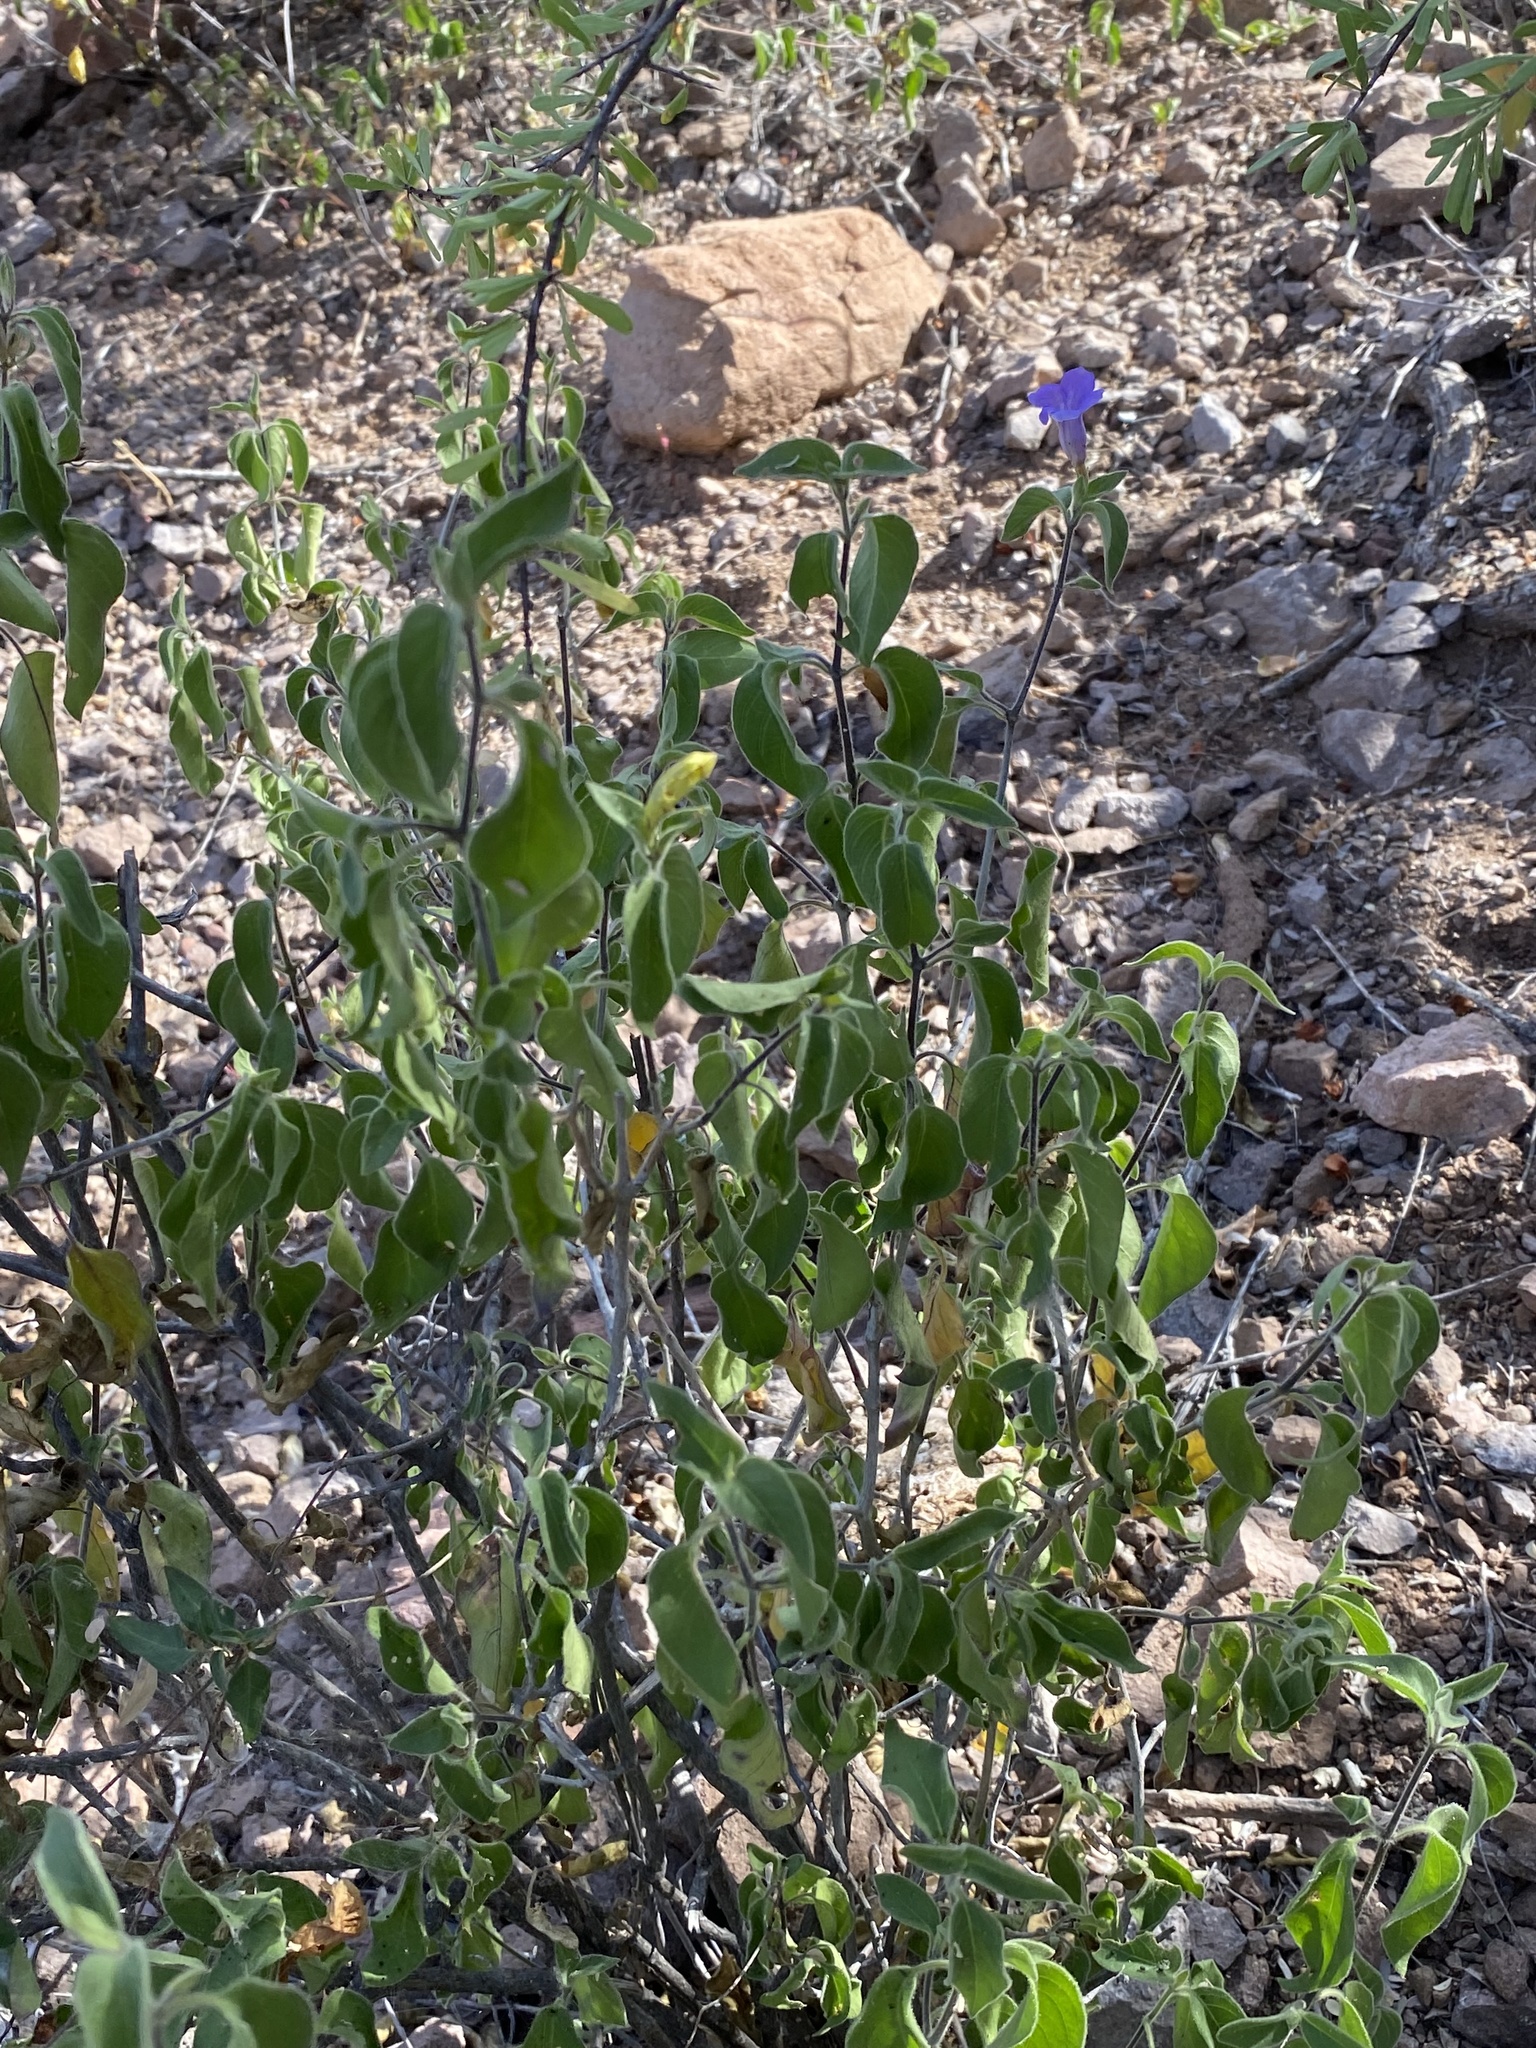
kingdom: Plantae
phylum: Tracheophyta
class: Magnoliopsida
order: Lamiales
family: Acanthaceae
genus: Ruellia
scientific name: Ruellia californica
